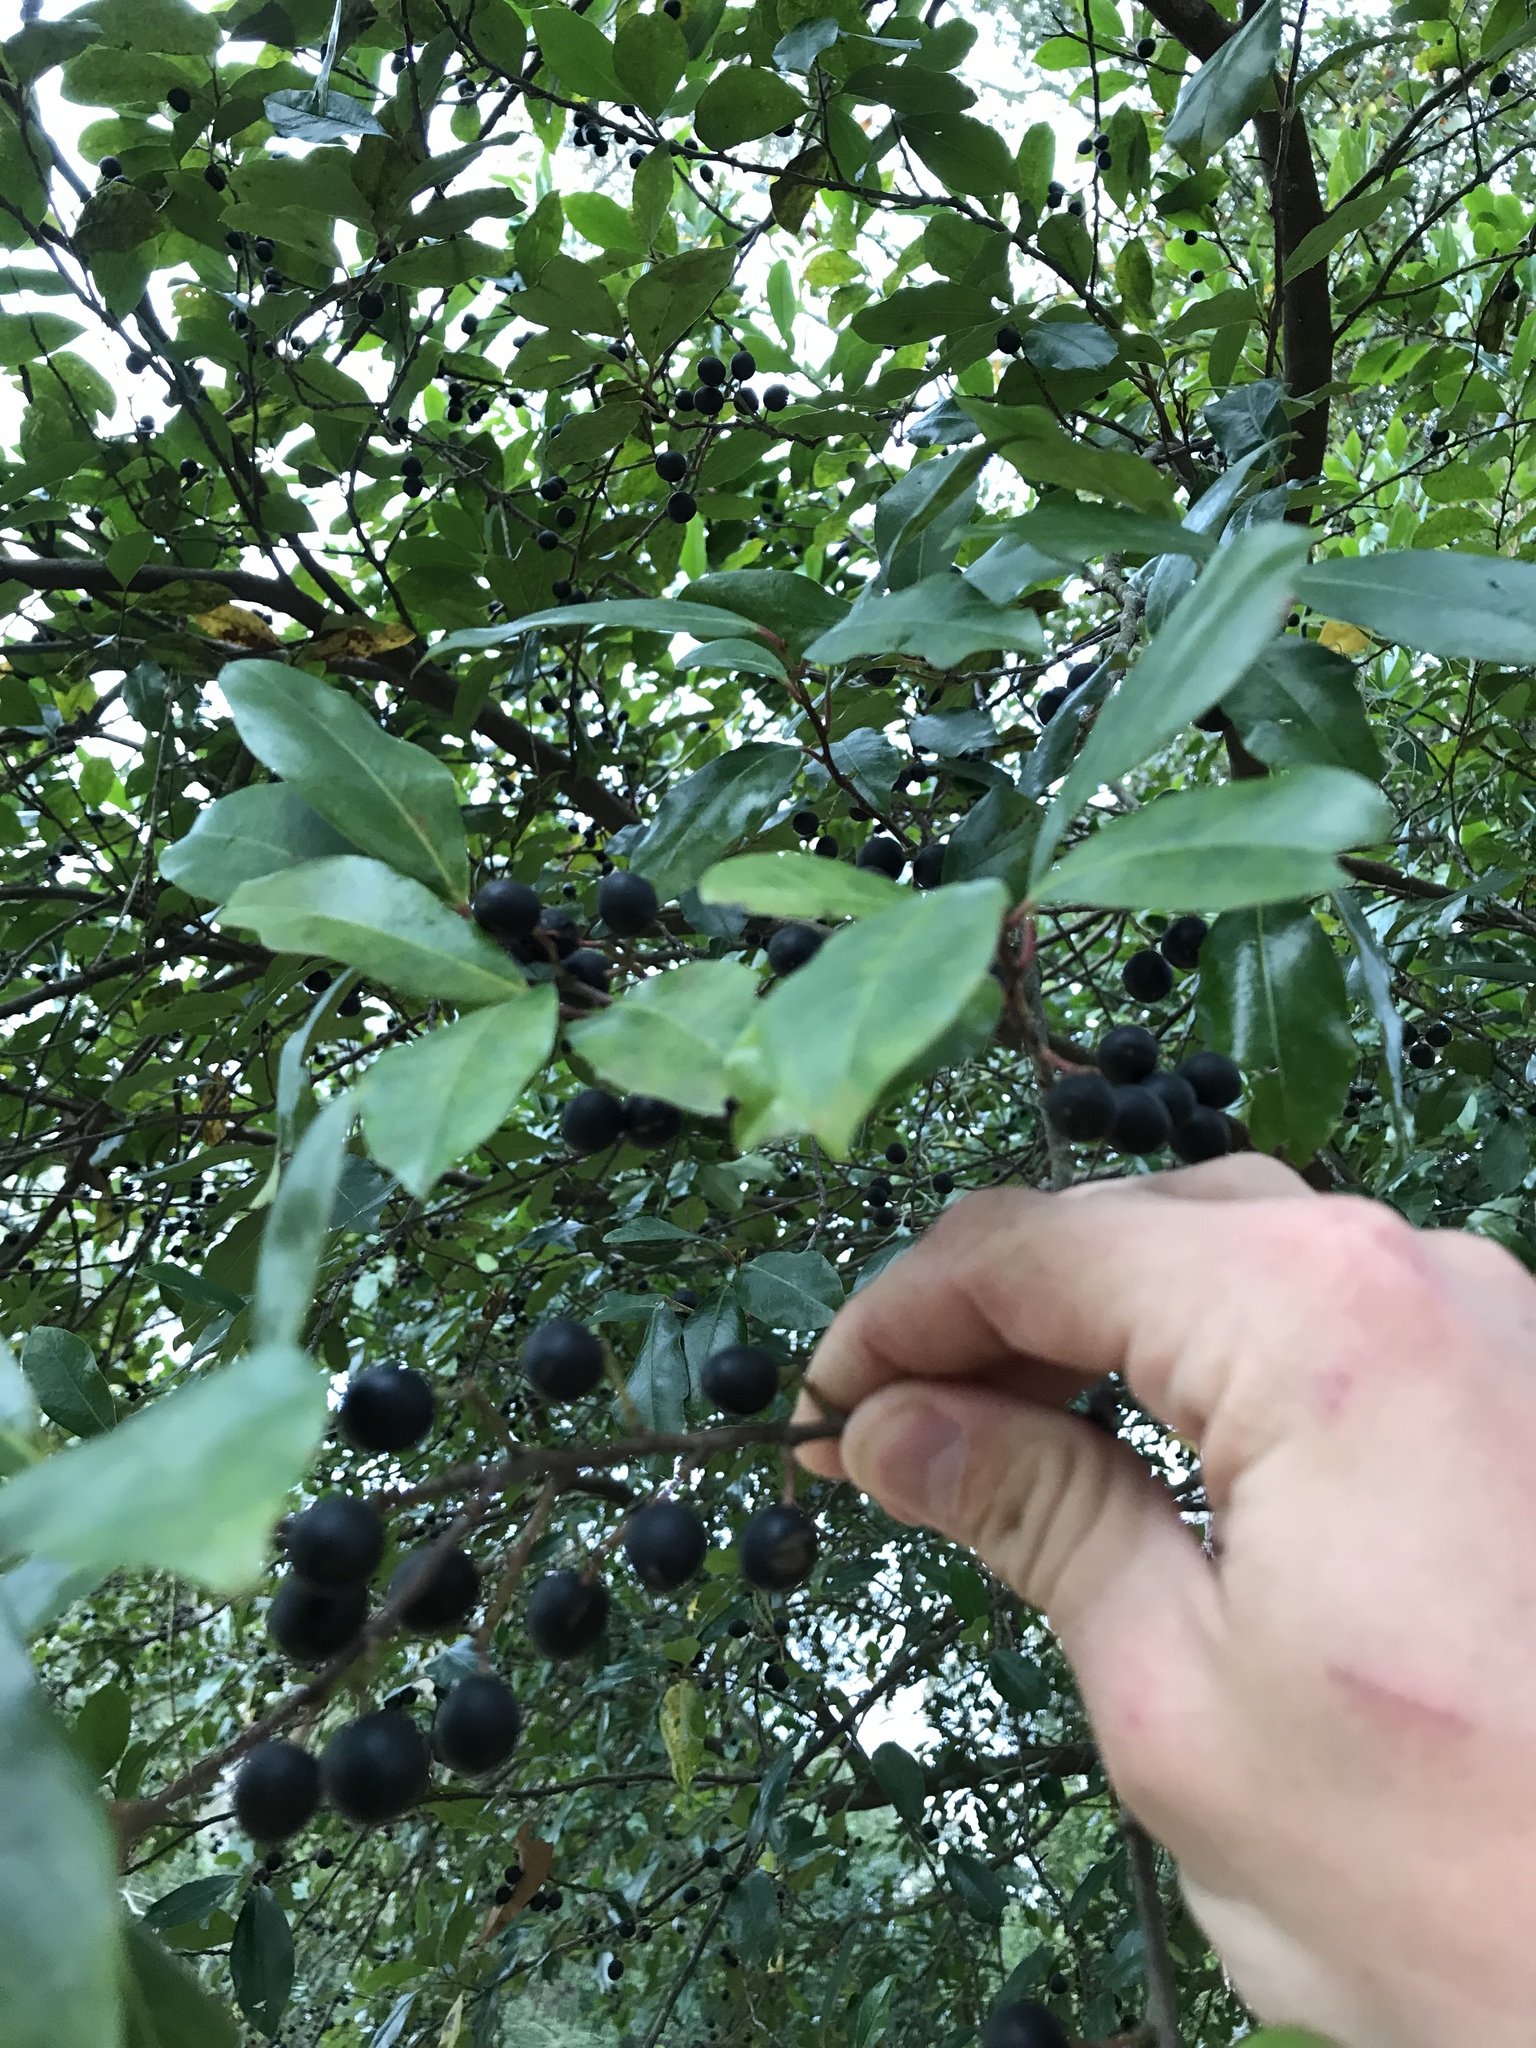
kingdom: Plantae
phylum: Tracheophyta
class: Magnoliopsida
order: Rosales
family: Rosaceae
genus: Prunus
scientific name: Prunus caroliniana
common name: Carolina laurel cherry
